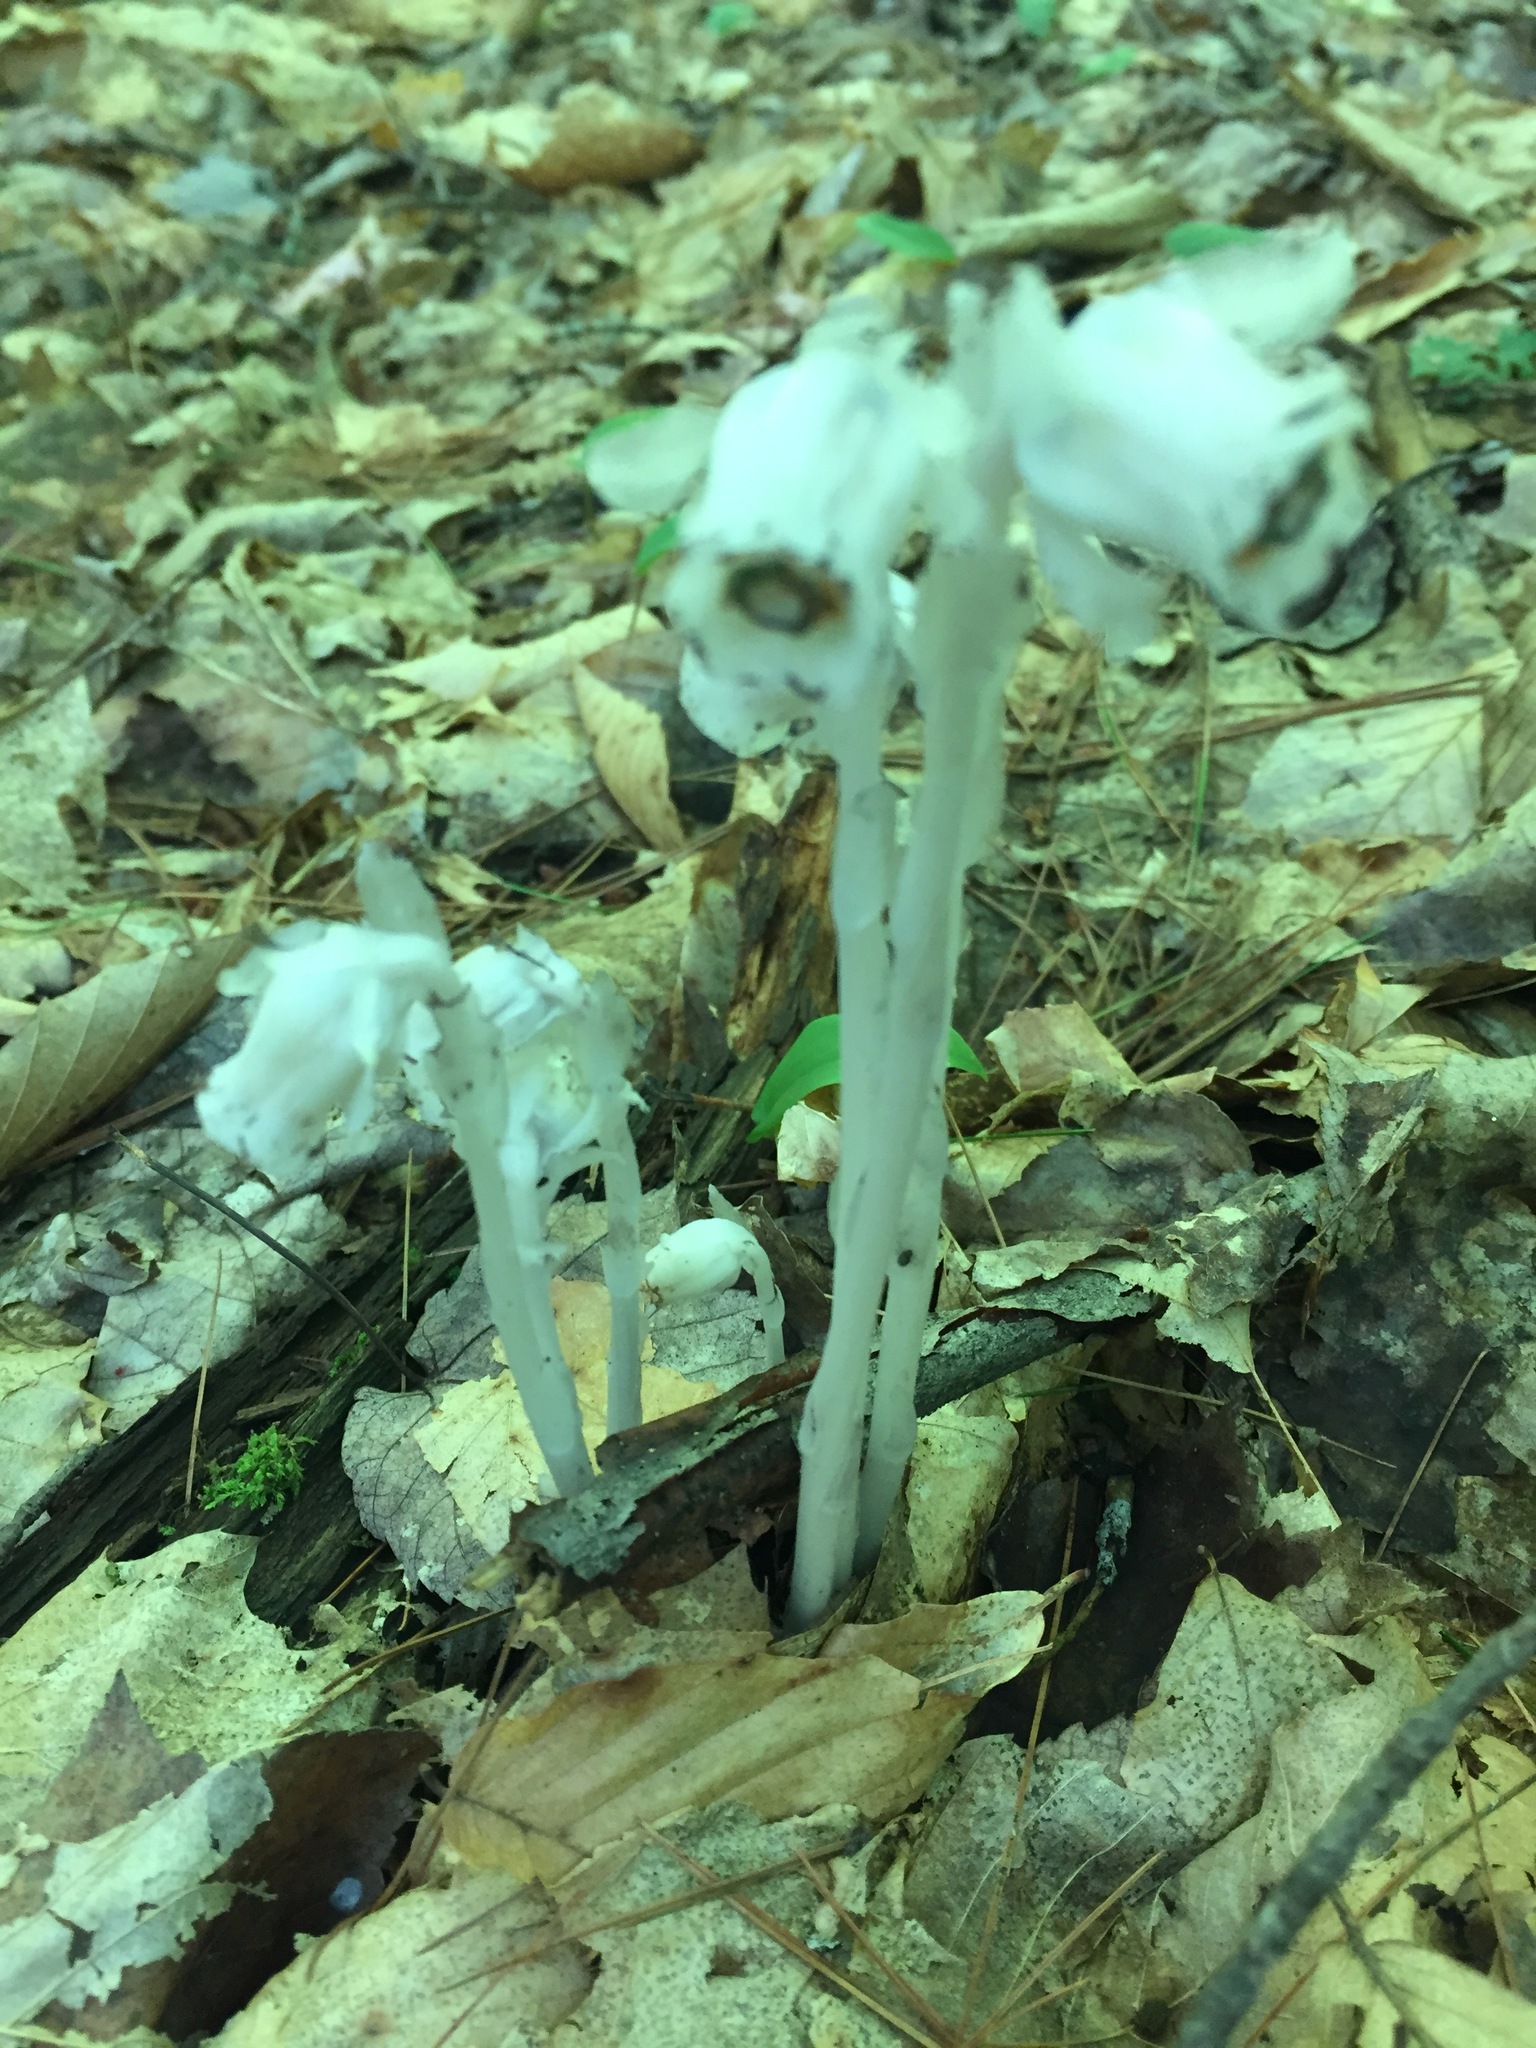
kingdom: Plantae
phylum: Tracheophyta
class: Magnoliopsida
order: Ericales
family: Ericaceae
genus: Monotropa
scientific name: Monotropa uniflora
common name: Convulsion root
